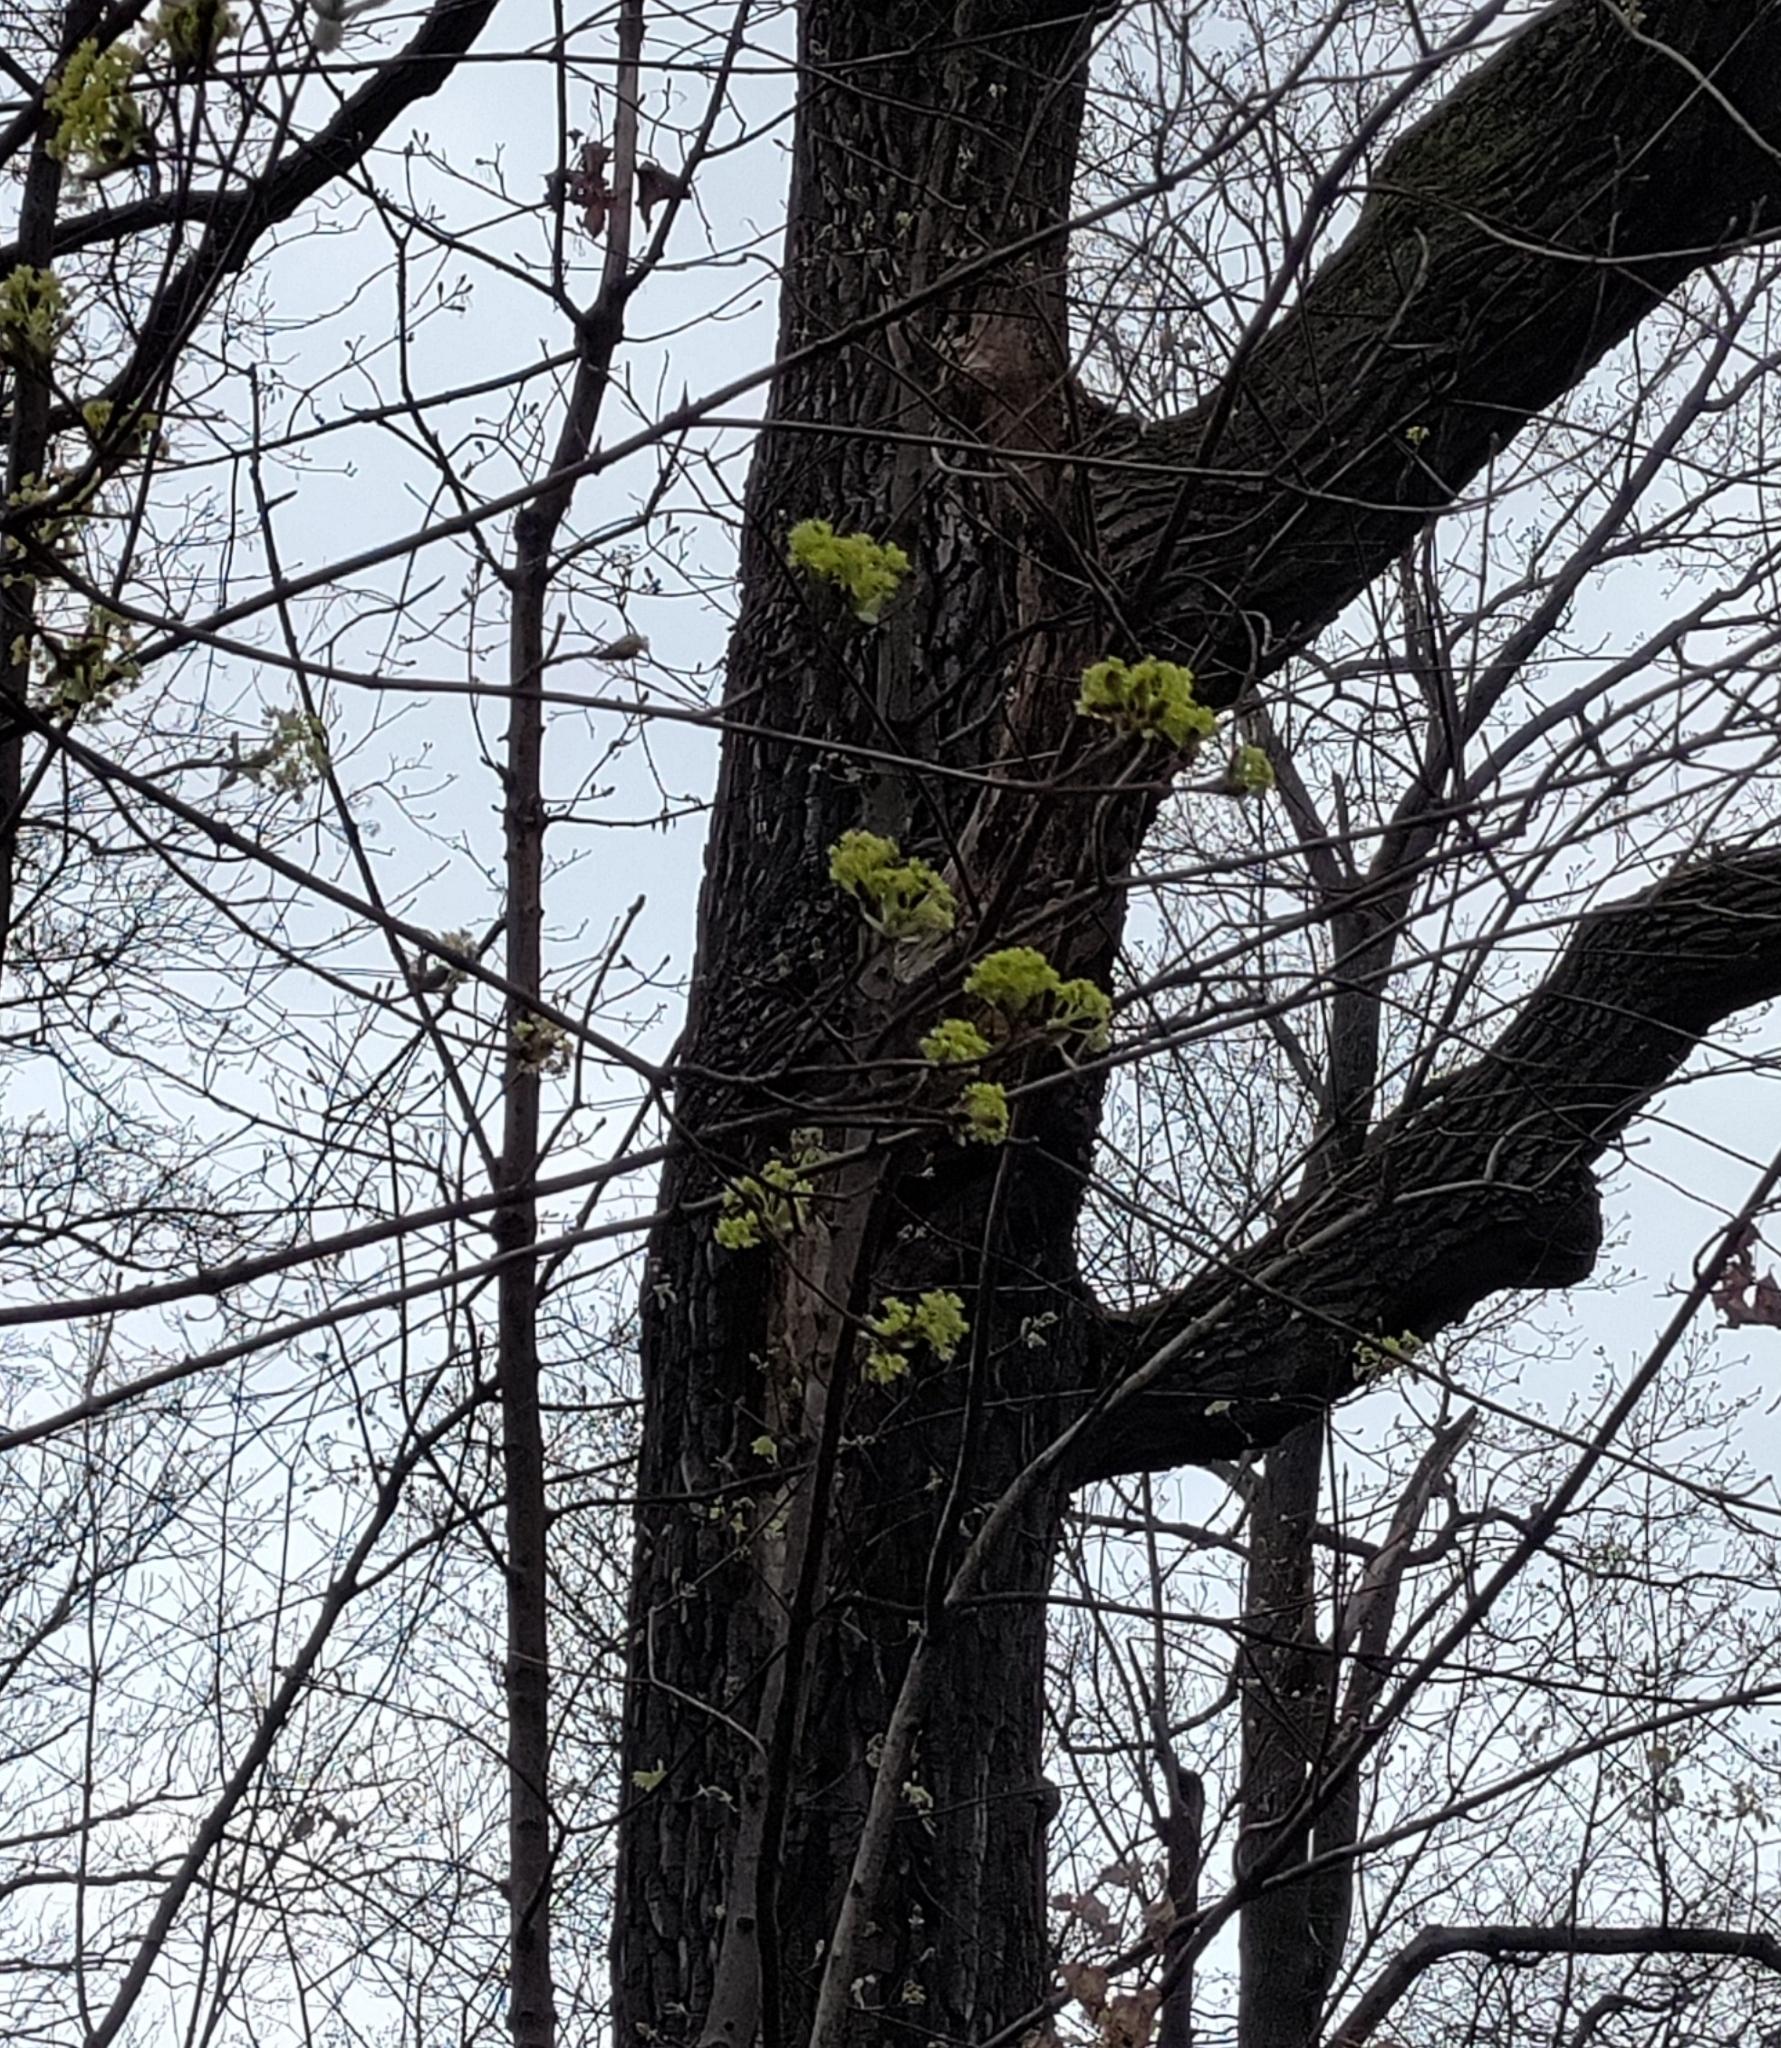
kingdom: Plantae
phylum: Tracheophyta
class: Magnoliopsida
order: Sapindales
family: Sapindaceae
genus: Acer
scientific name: Acer platanoides
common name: Norway maple
